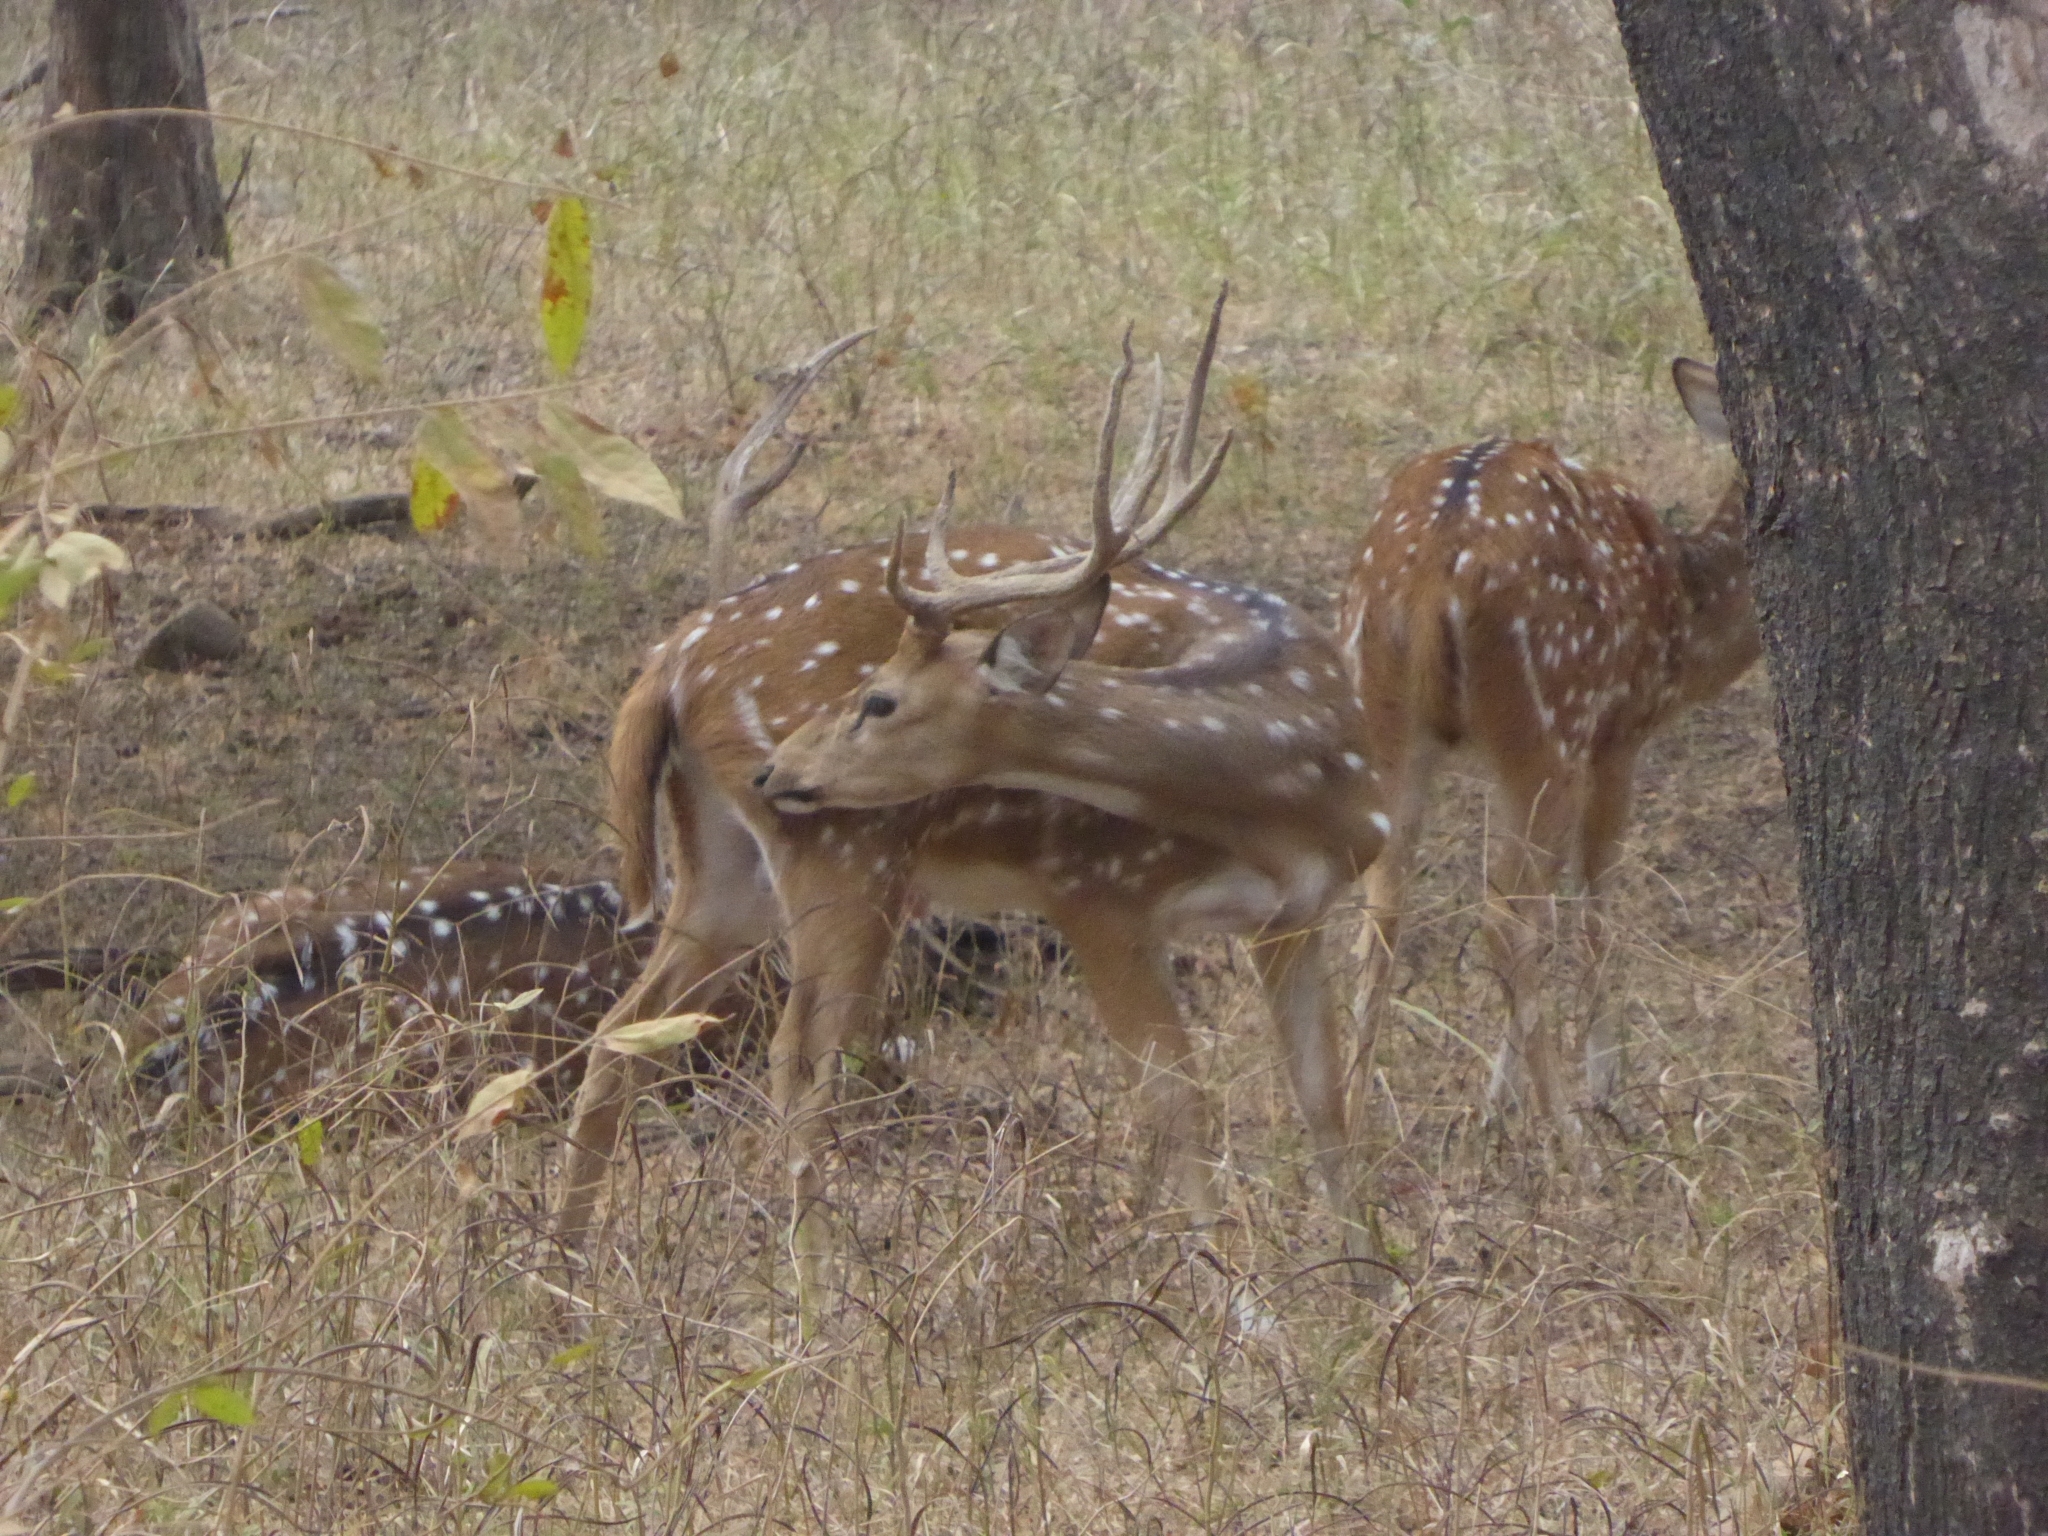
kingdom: Animalia
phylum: Chordata
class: Mammalia
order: Artiodactyla
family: Cervidae
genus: Axis
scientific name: Axis axis
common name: Chital
